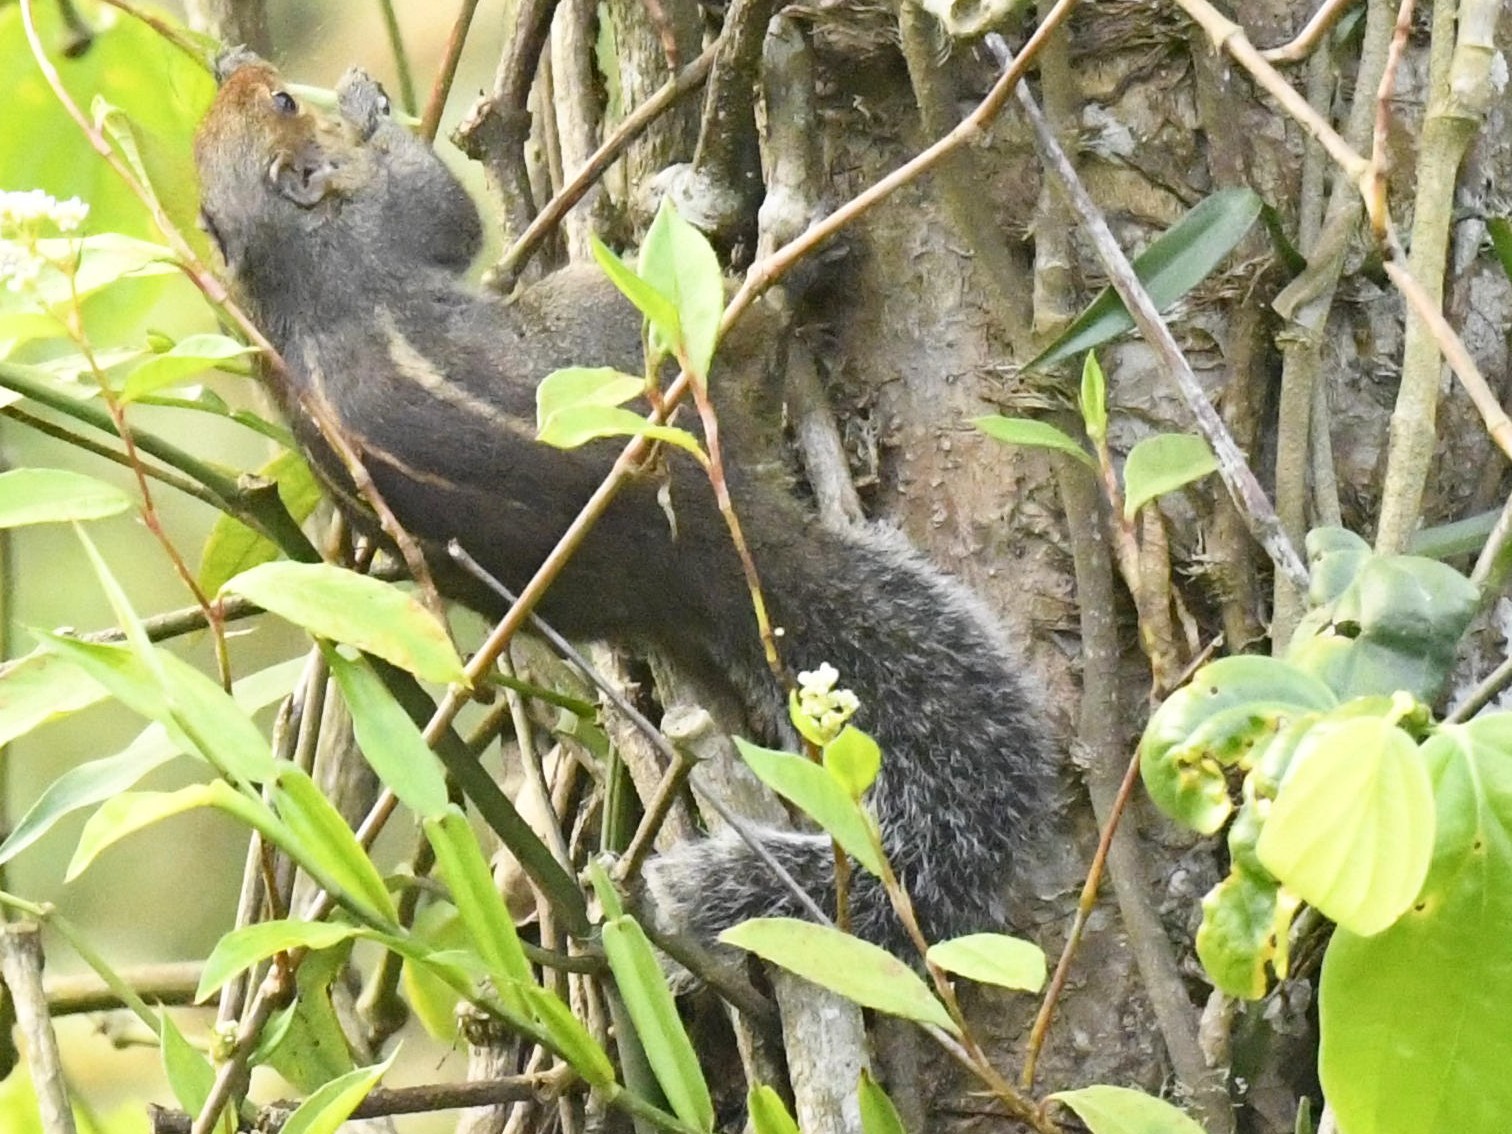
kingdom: Animalia
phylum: Chordata
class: Mammalia
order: Rodentia
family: Sciuridae
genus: Funambulus
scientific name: Funambulus tristriatus
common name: Jungle palm squirrel
